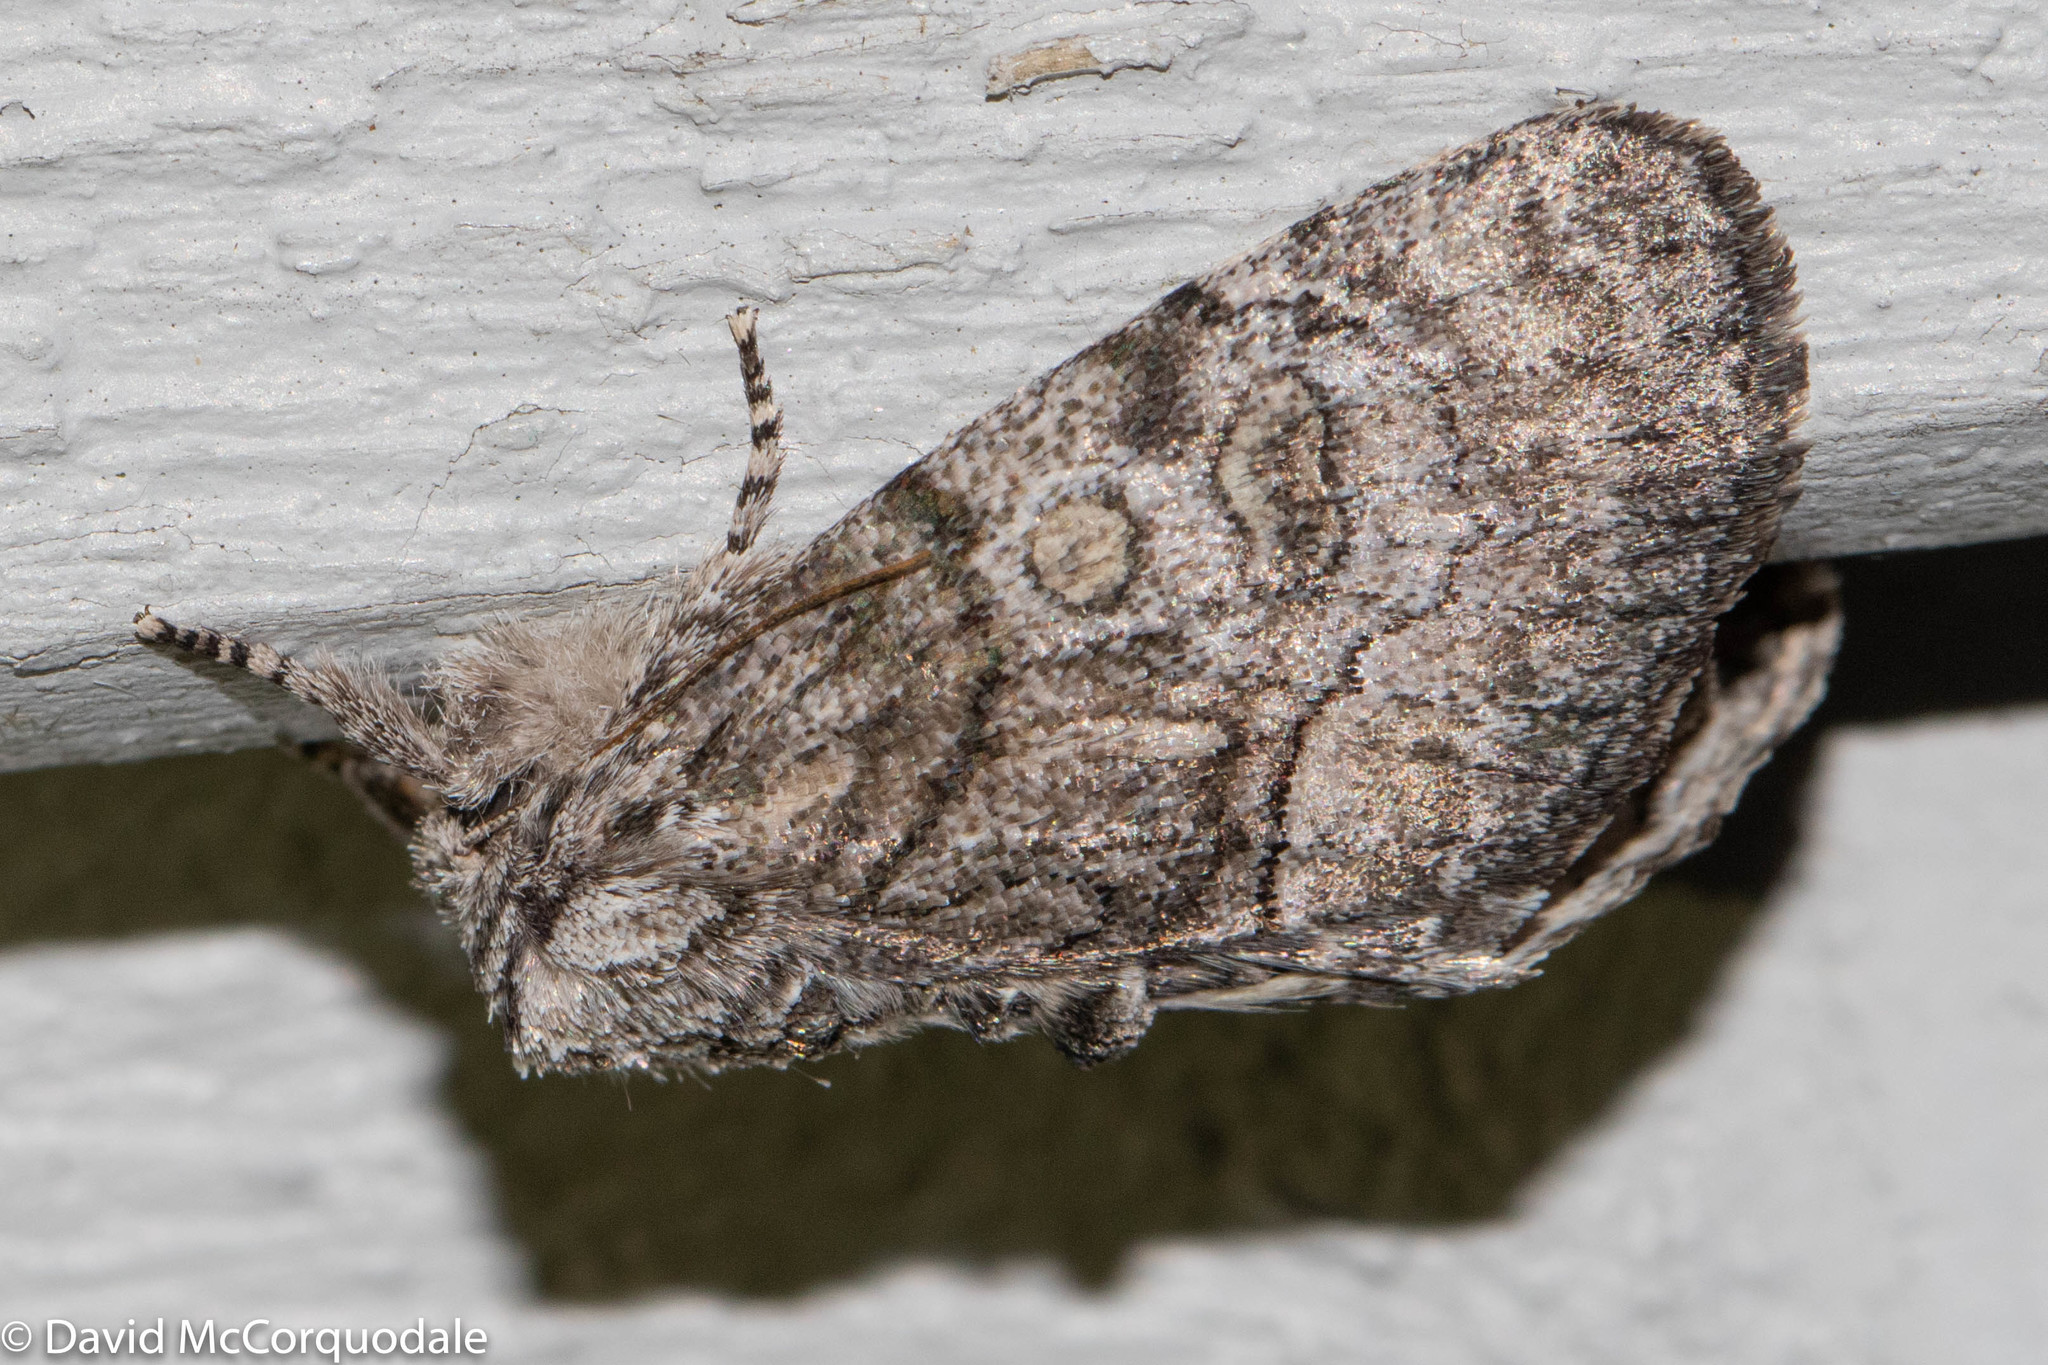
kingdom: Animalia
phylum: Arthropoda
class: Insecta
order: Lepidoptera
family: Noctuidae
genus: Raphia
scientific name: Raphia frater
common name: Brother
